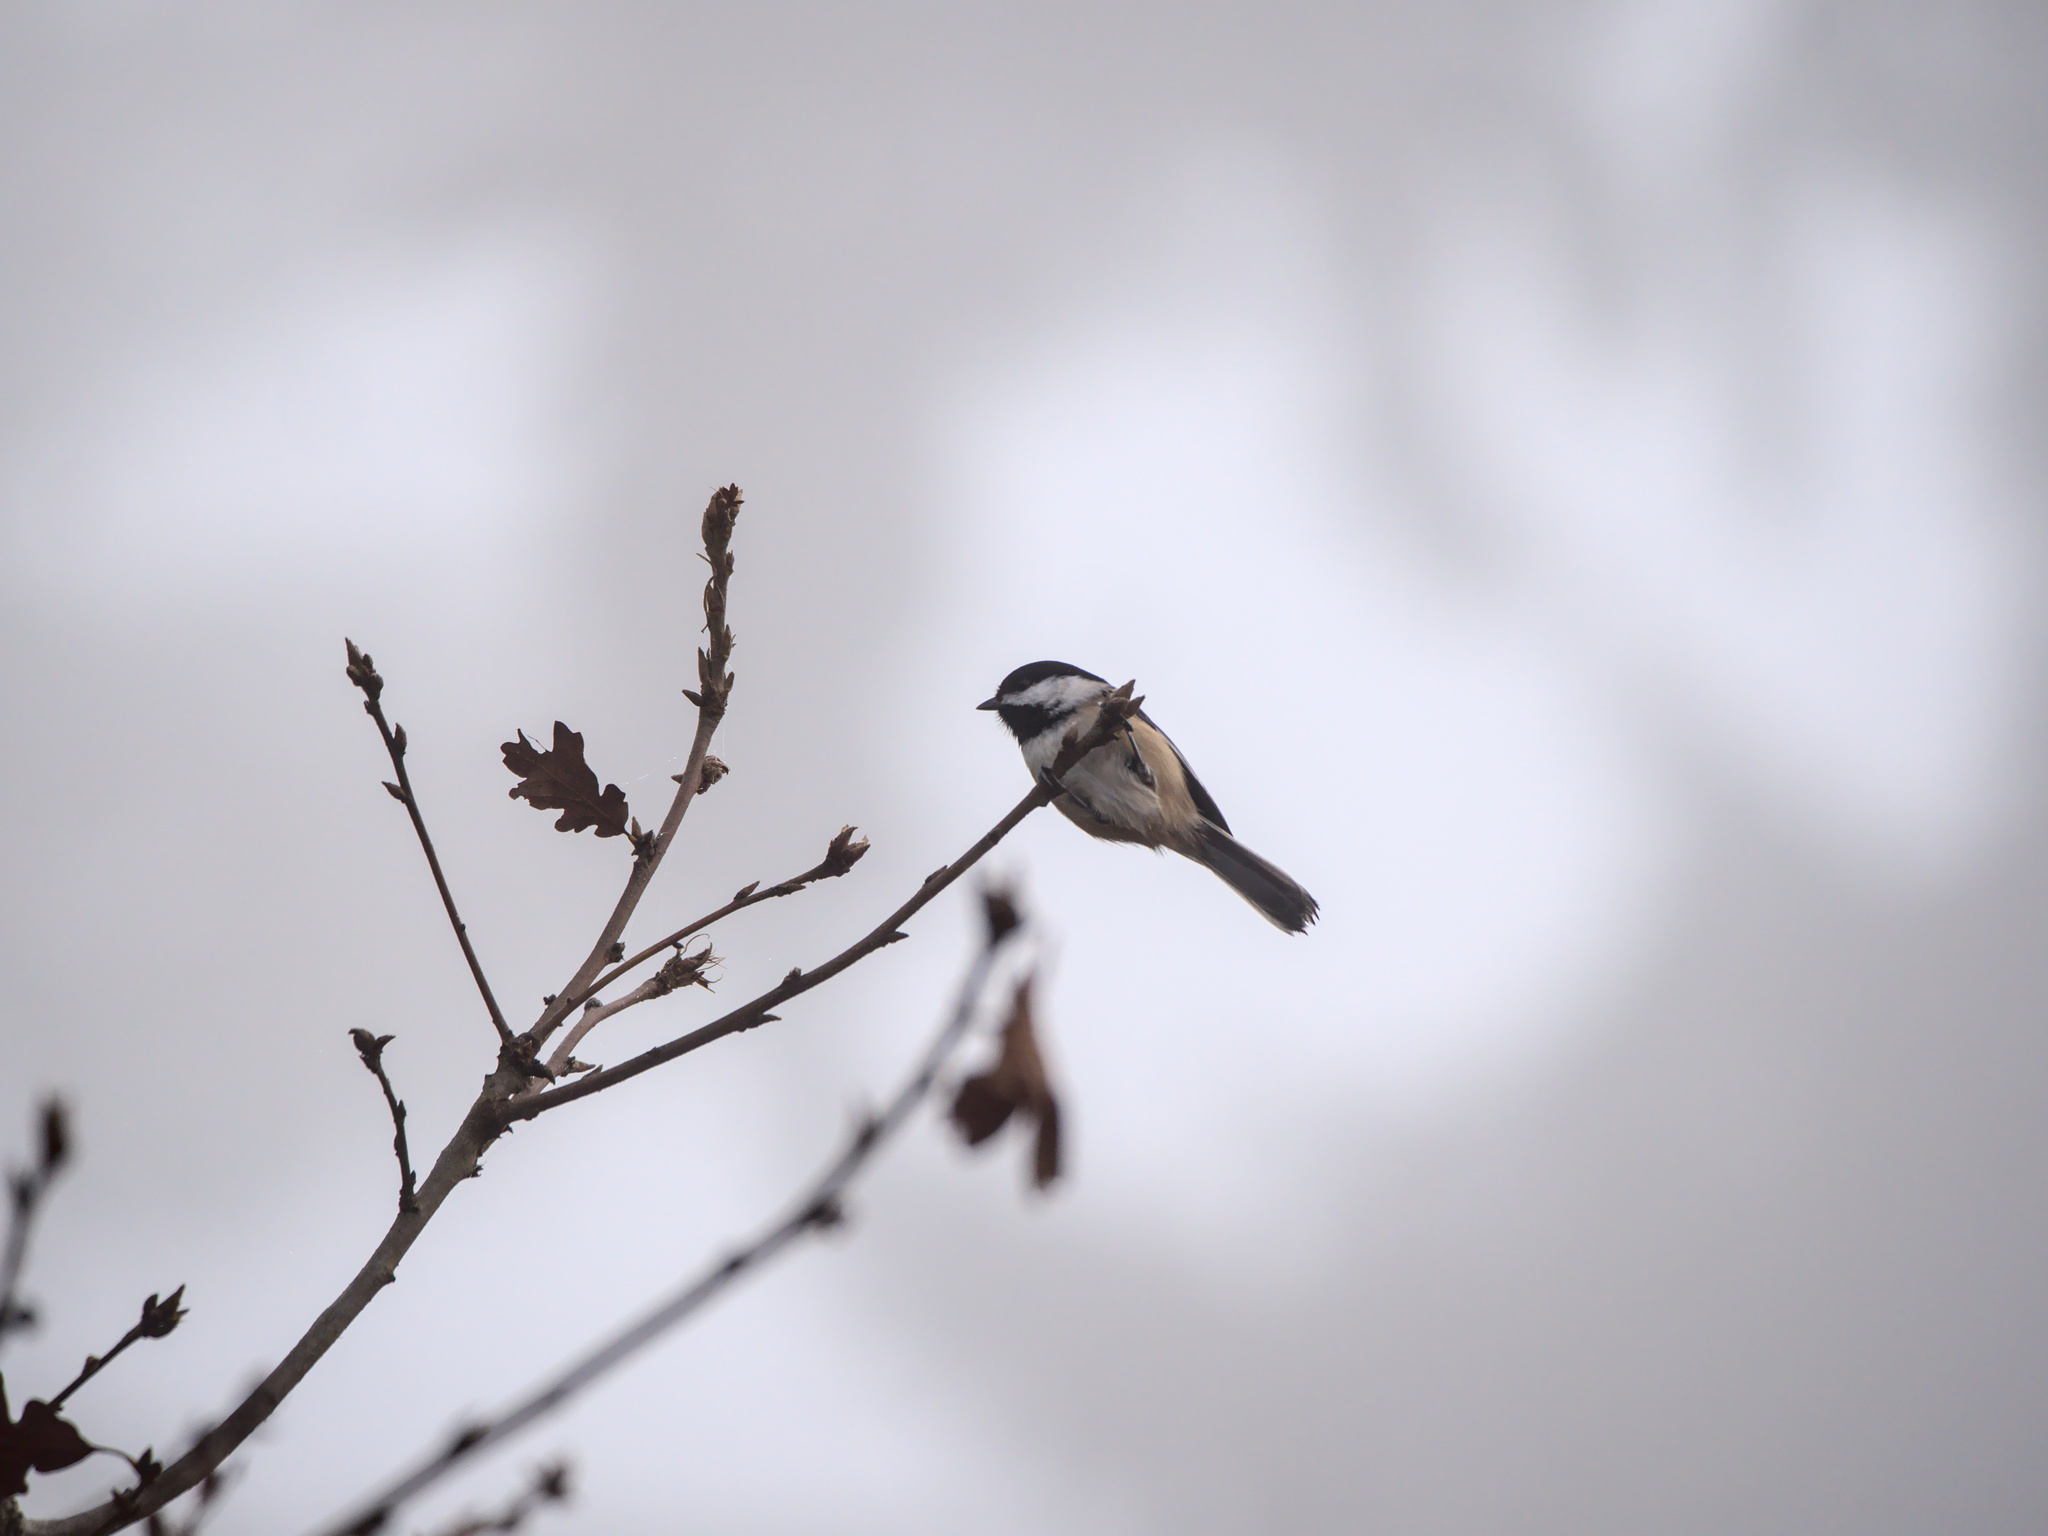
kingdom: Animalia
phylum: Chordata
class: Aves
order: Passeriformes
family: Paridae
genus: Poecile
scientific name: Poecile atricapillus
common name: Black-capped chickadee
